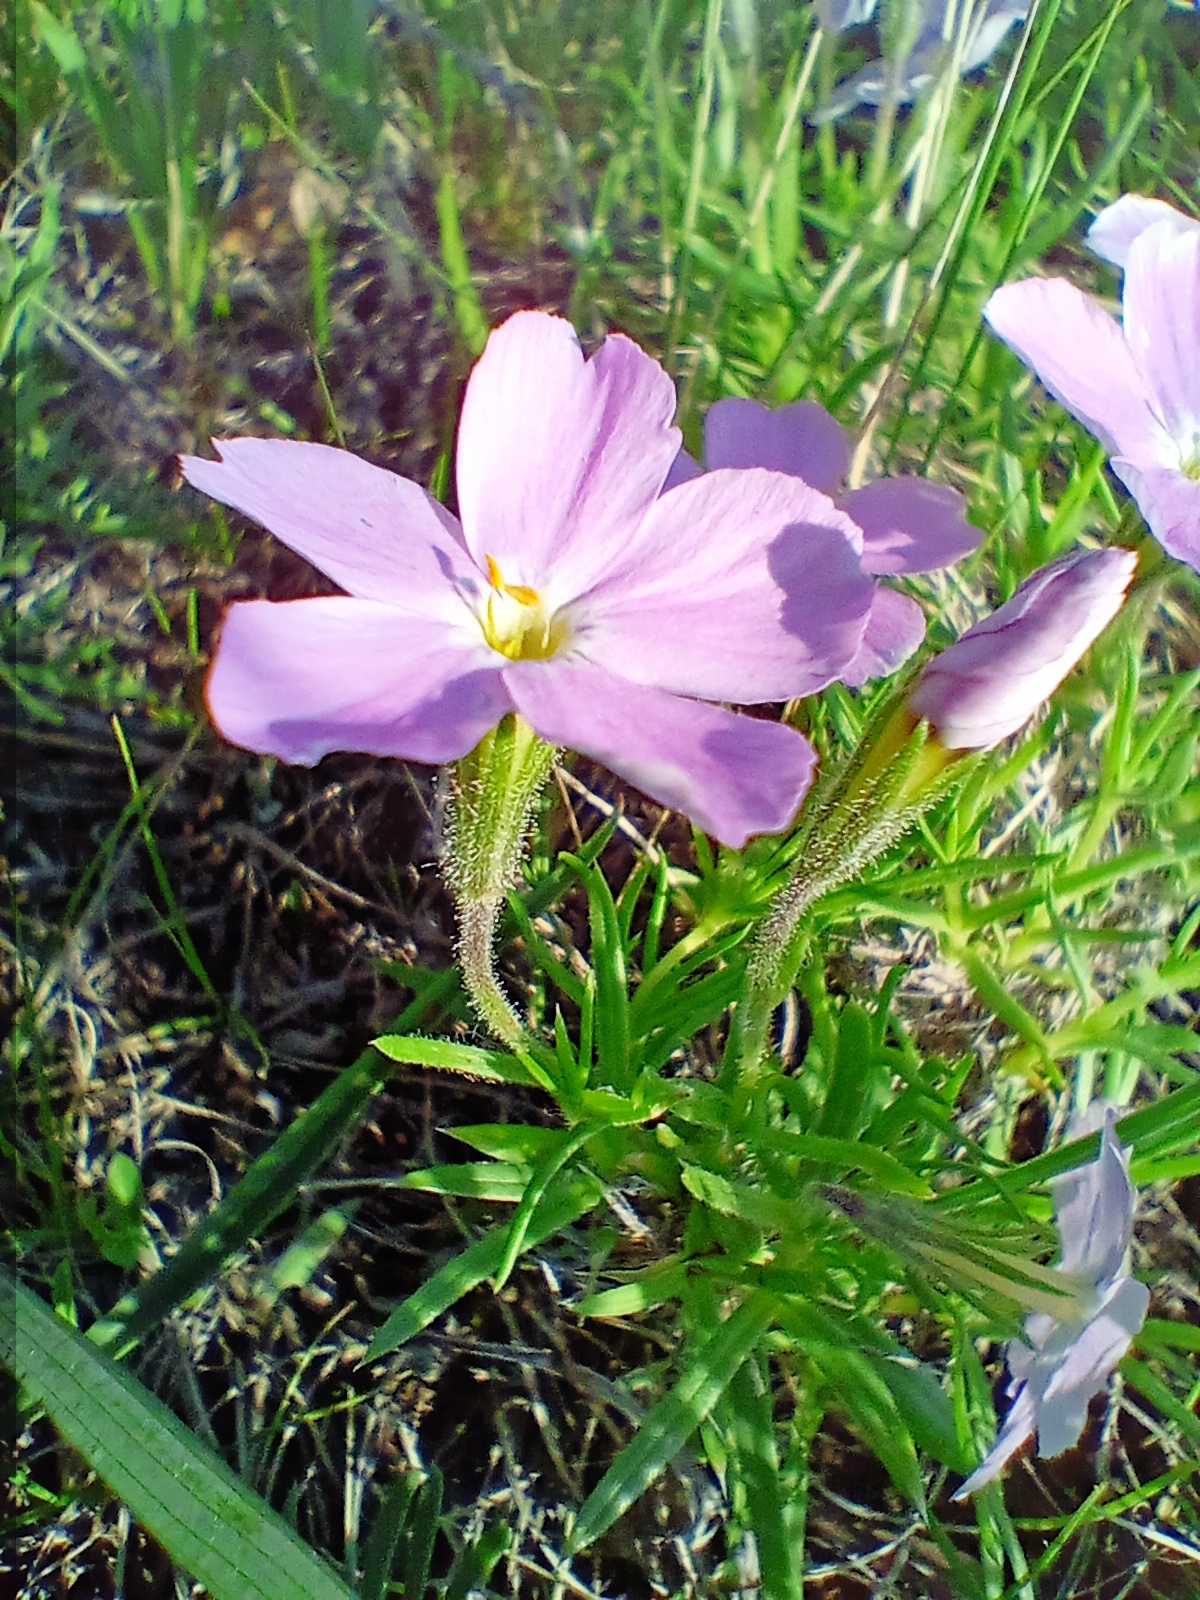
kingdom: Plantae
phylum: Tracheophyta
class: Magnoliopsida
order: Ericales
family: Polemoniaceae
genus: Phlox
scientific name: Phlox sibirica
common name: Siberian phlox
